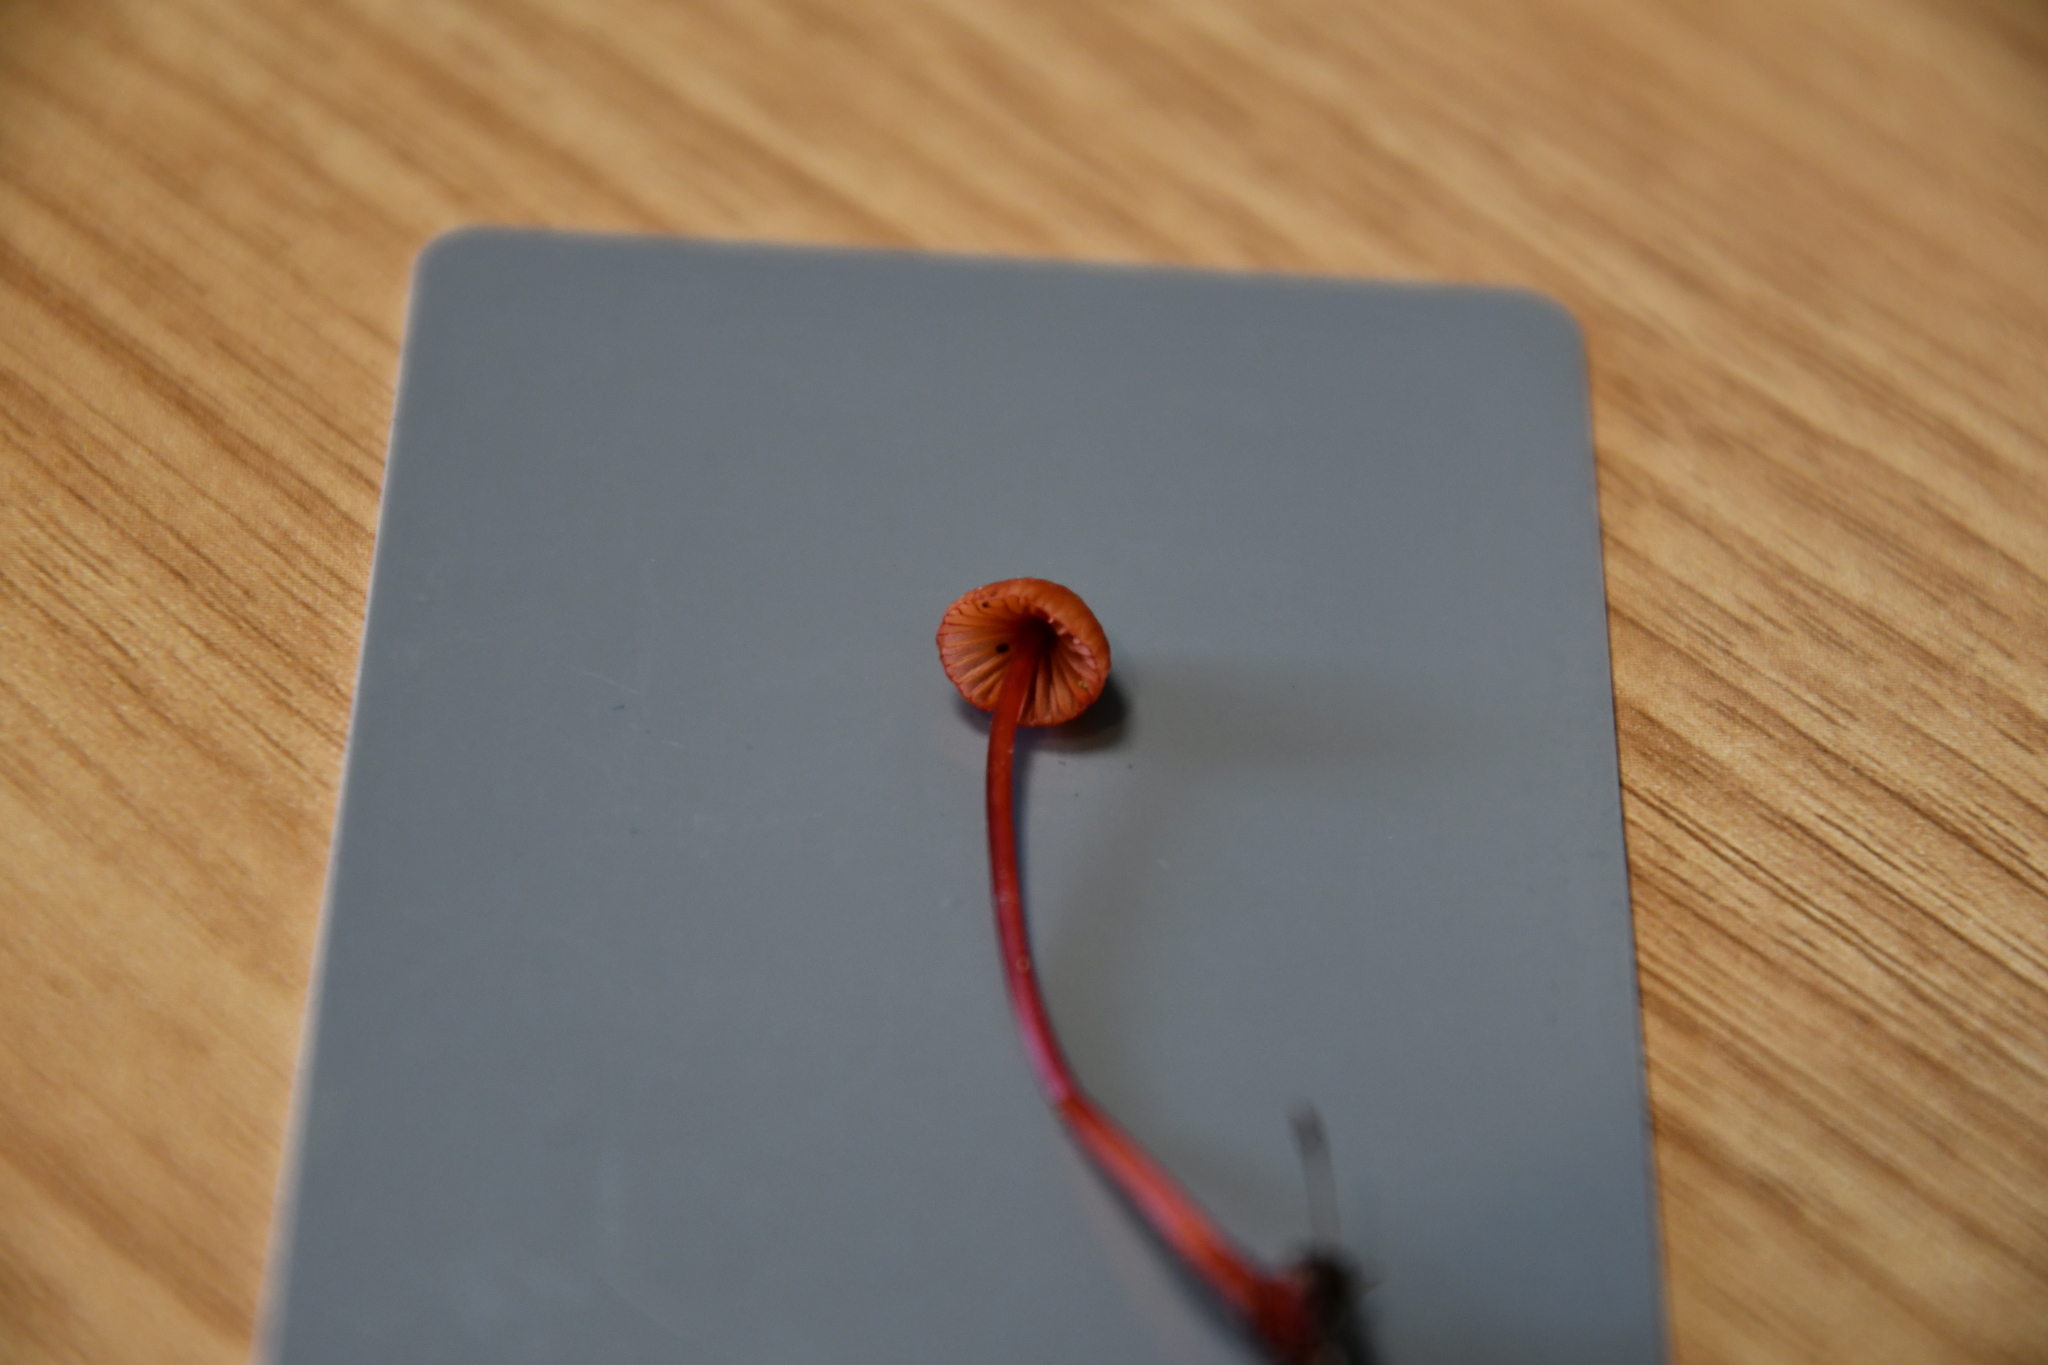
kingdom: Fungi
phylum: Basidiomycota
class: Agaricomycetes
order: Agaricales
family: Mycenaceae
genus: Mycena
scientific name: Mycena ura
